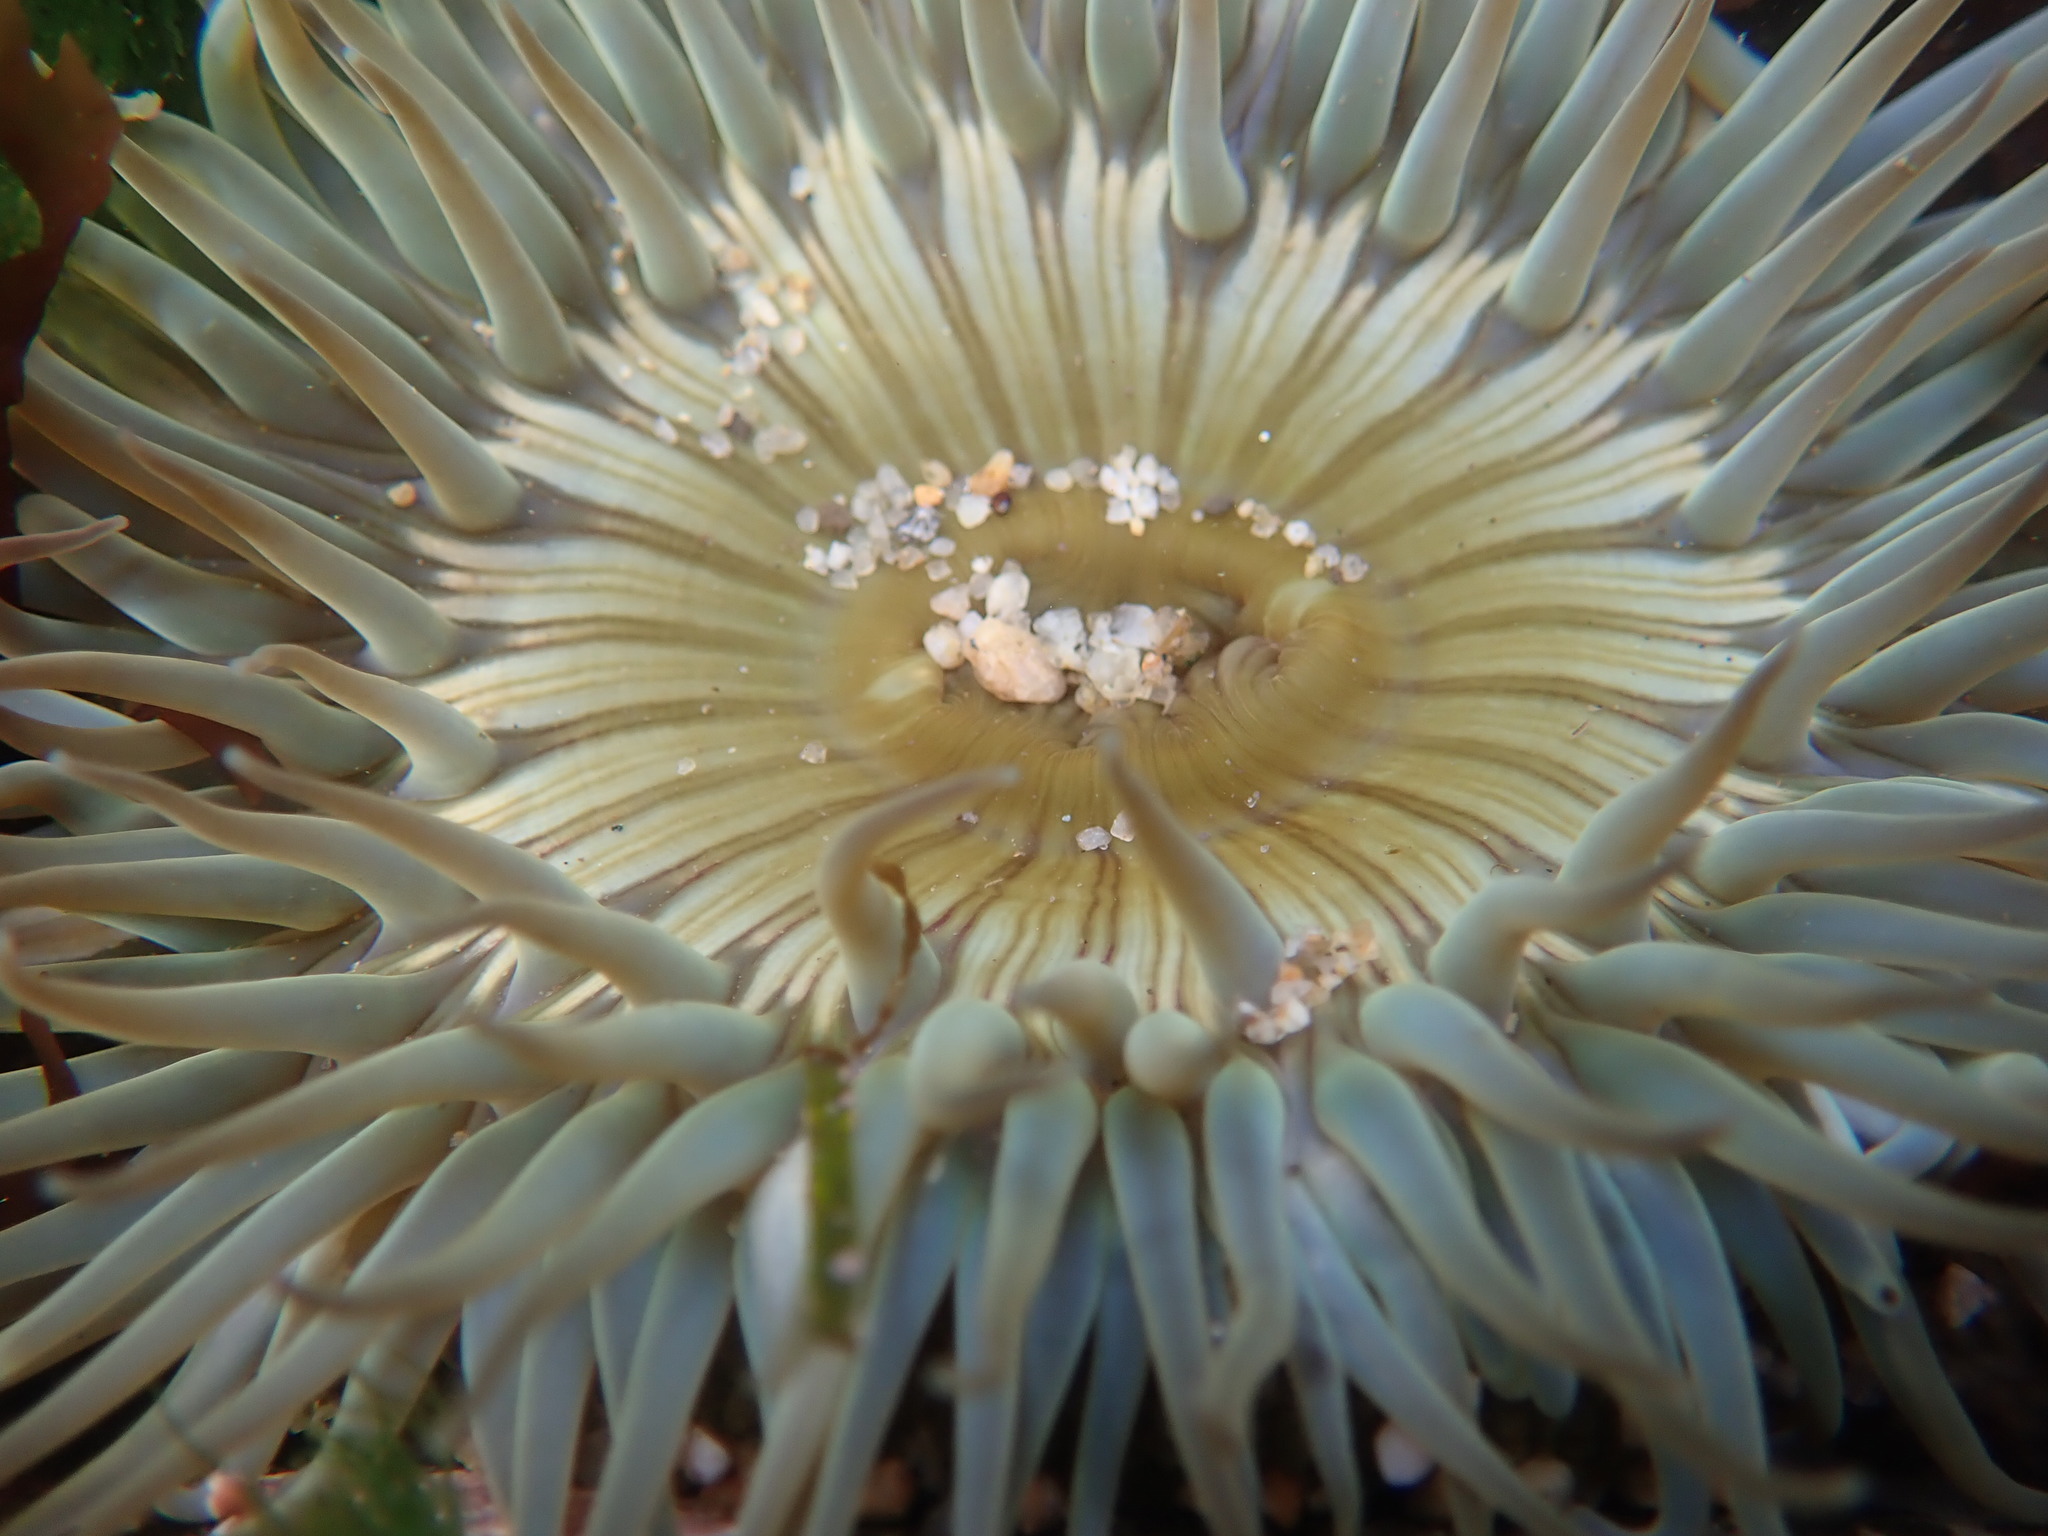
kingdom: Animalia
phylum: Cnidaria
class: Anthozoa
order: Actiniaria
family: Actiniidae
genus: Anthopleura
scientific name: Anthopleura sola
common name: Sun anemone
